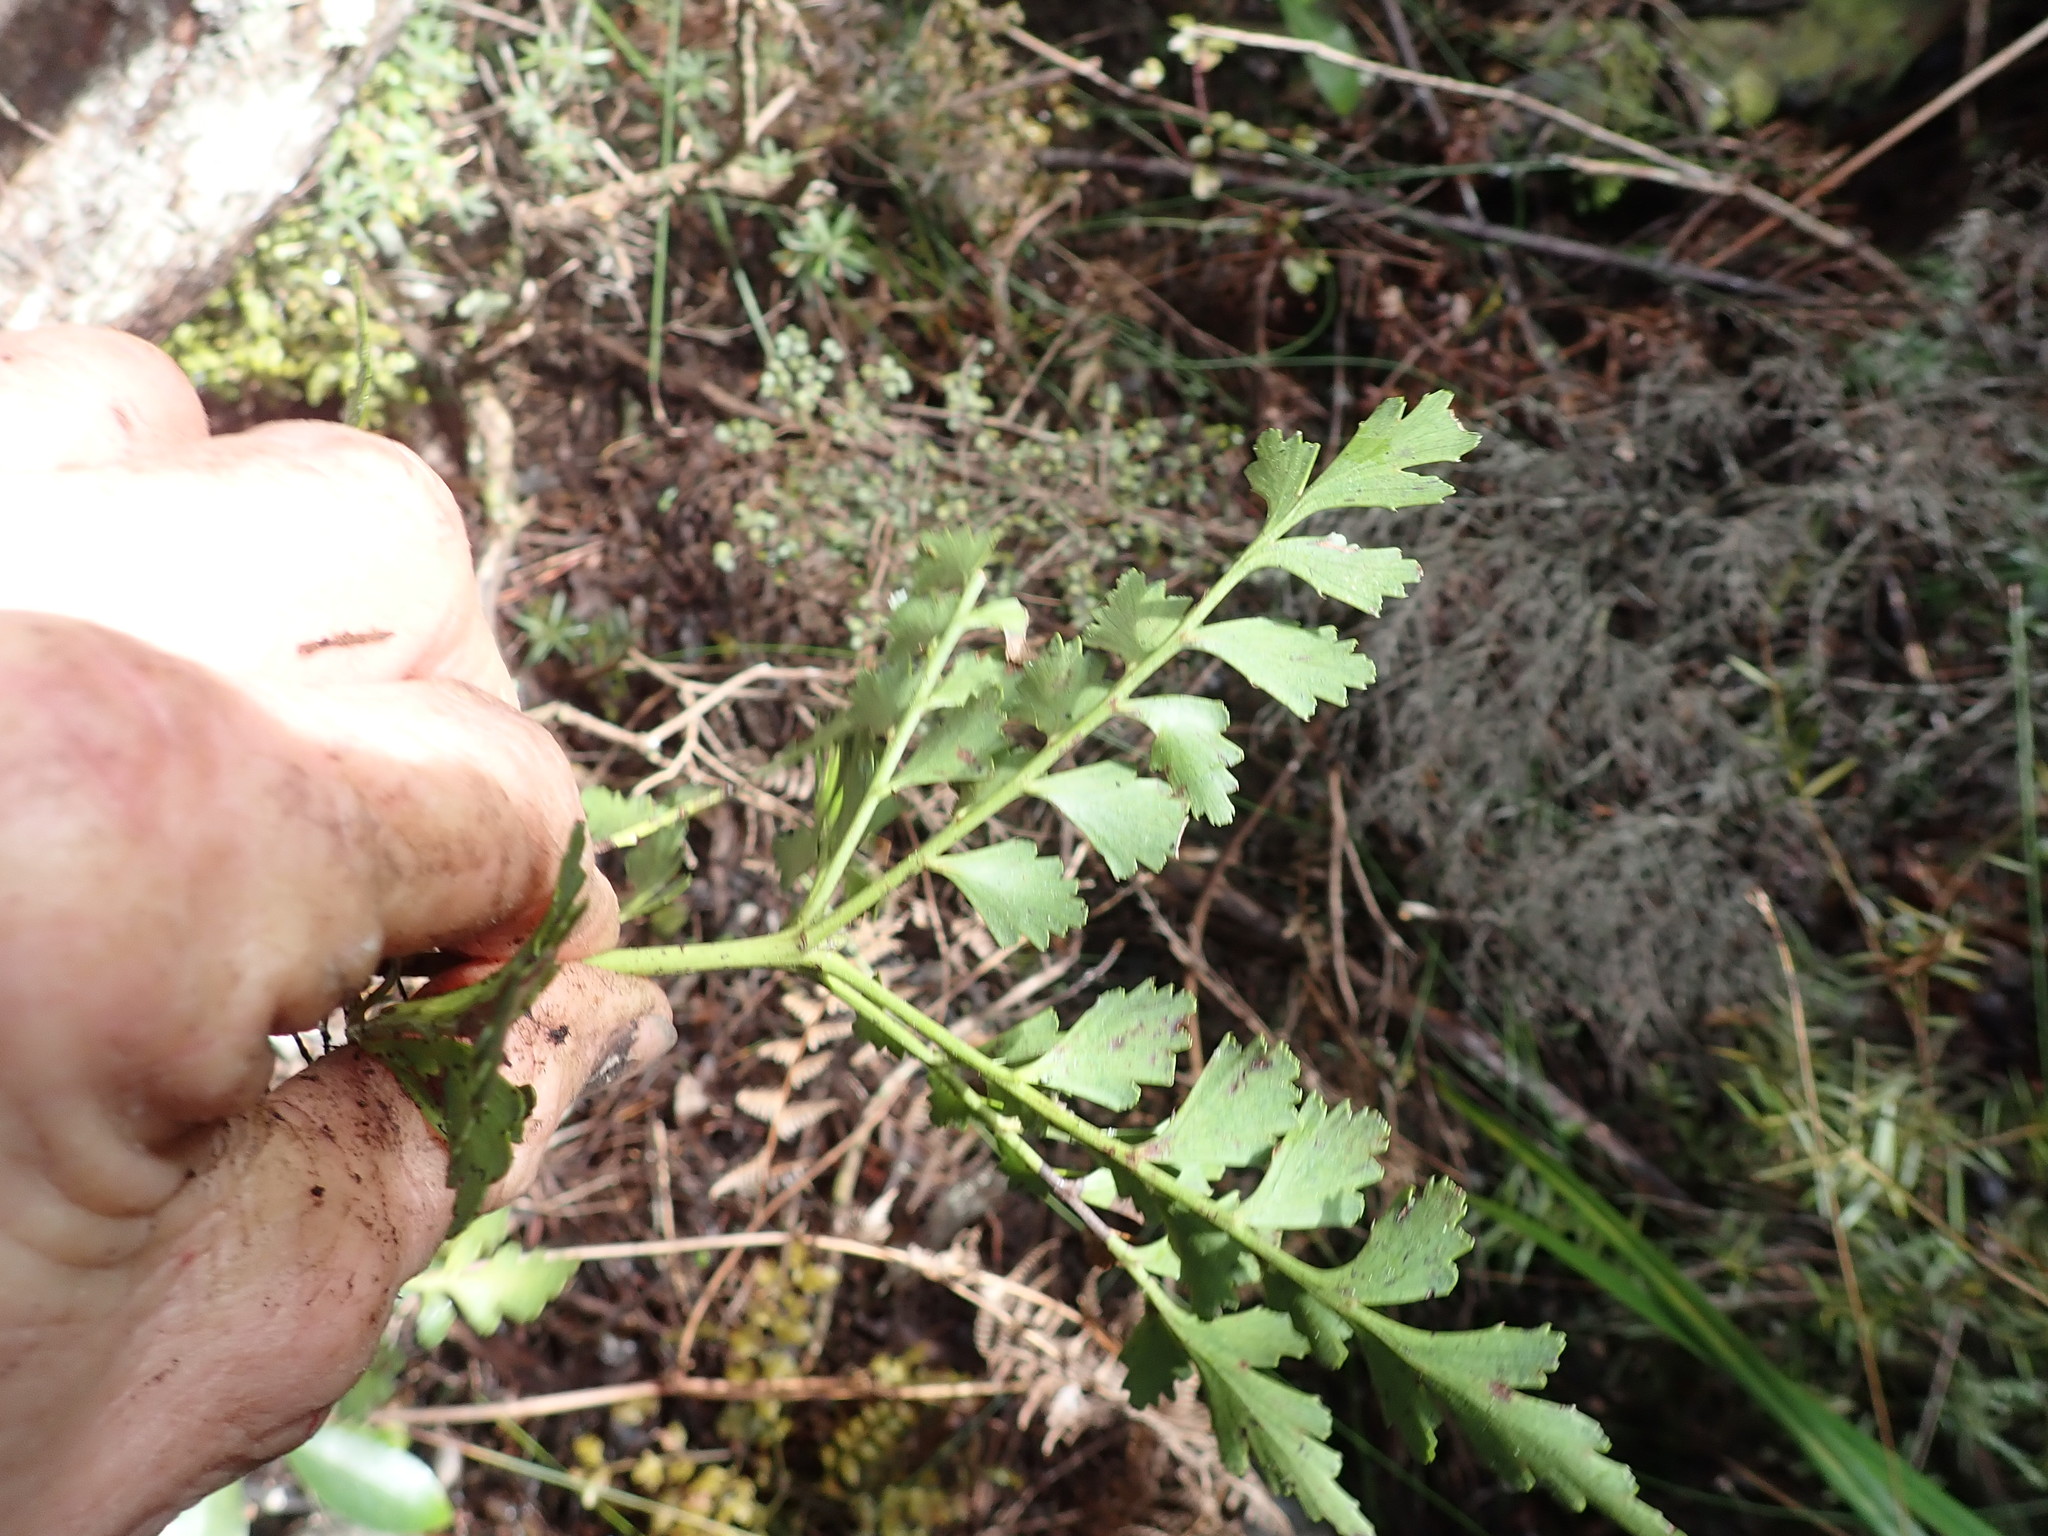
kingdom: Plantae
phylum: Tracheophyta
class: Pinopsida
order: Pinales
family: Phyllocladaceae
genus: Phyllocladus
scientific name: Phyllocladus trichomanoides
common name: Celery pine
